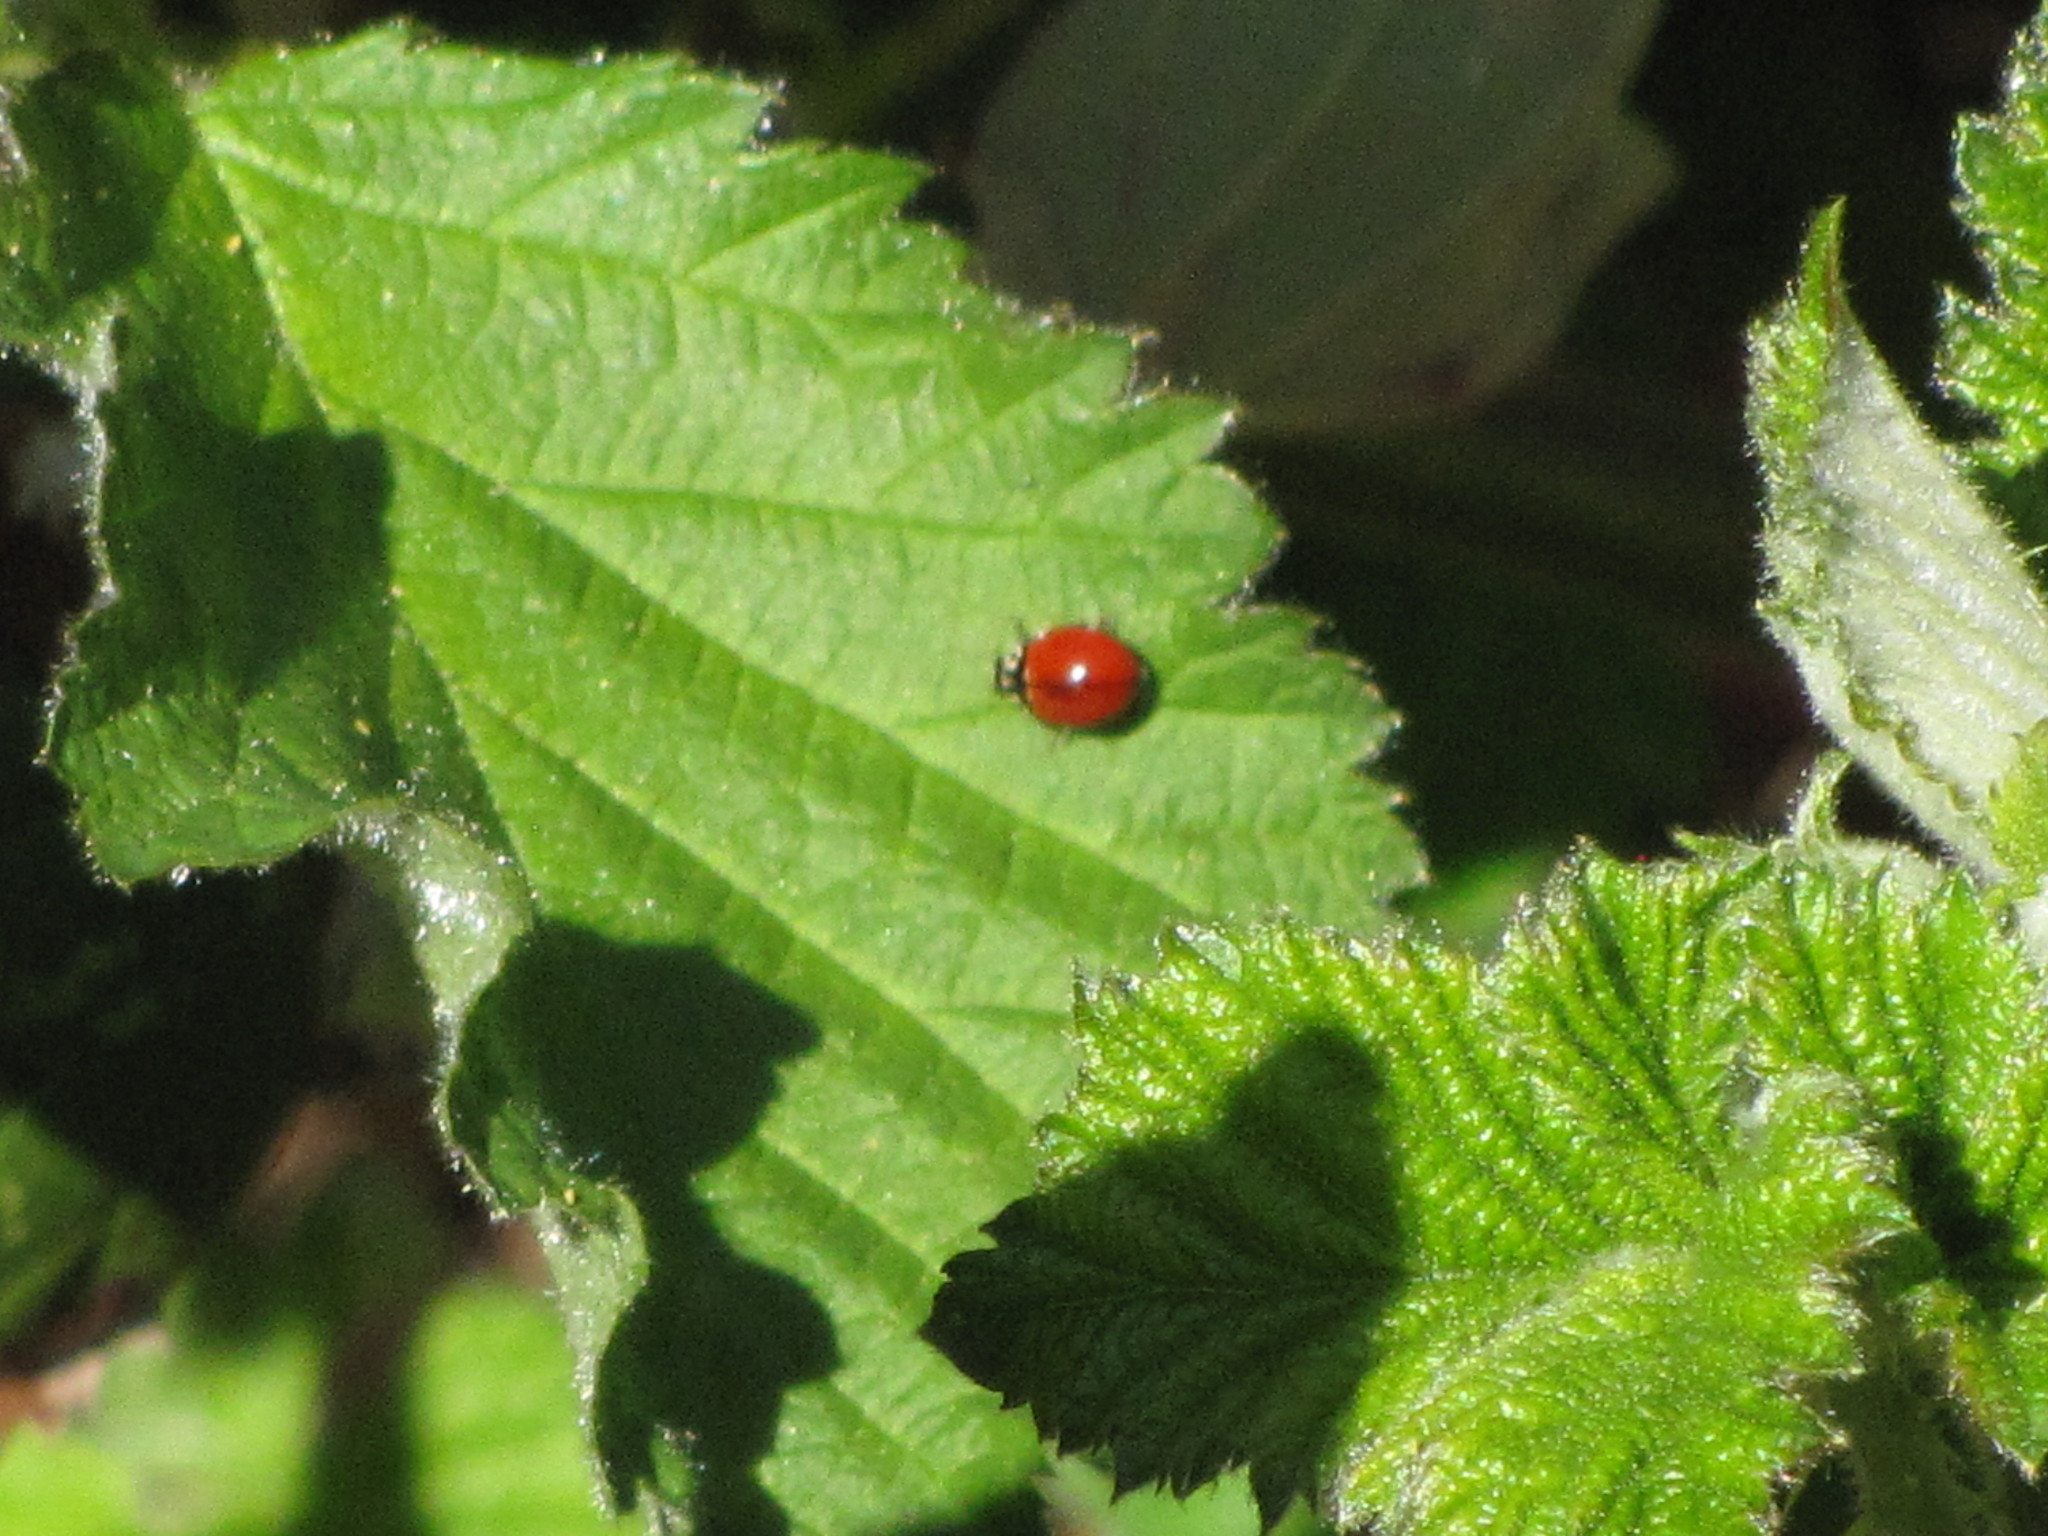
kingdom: Animalia
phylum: Arthropoda
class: Insecta
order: Coleoptera
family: Coccinellidae
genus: Cycloneda
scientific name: Cycloneda polita
